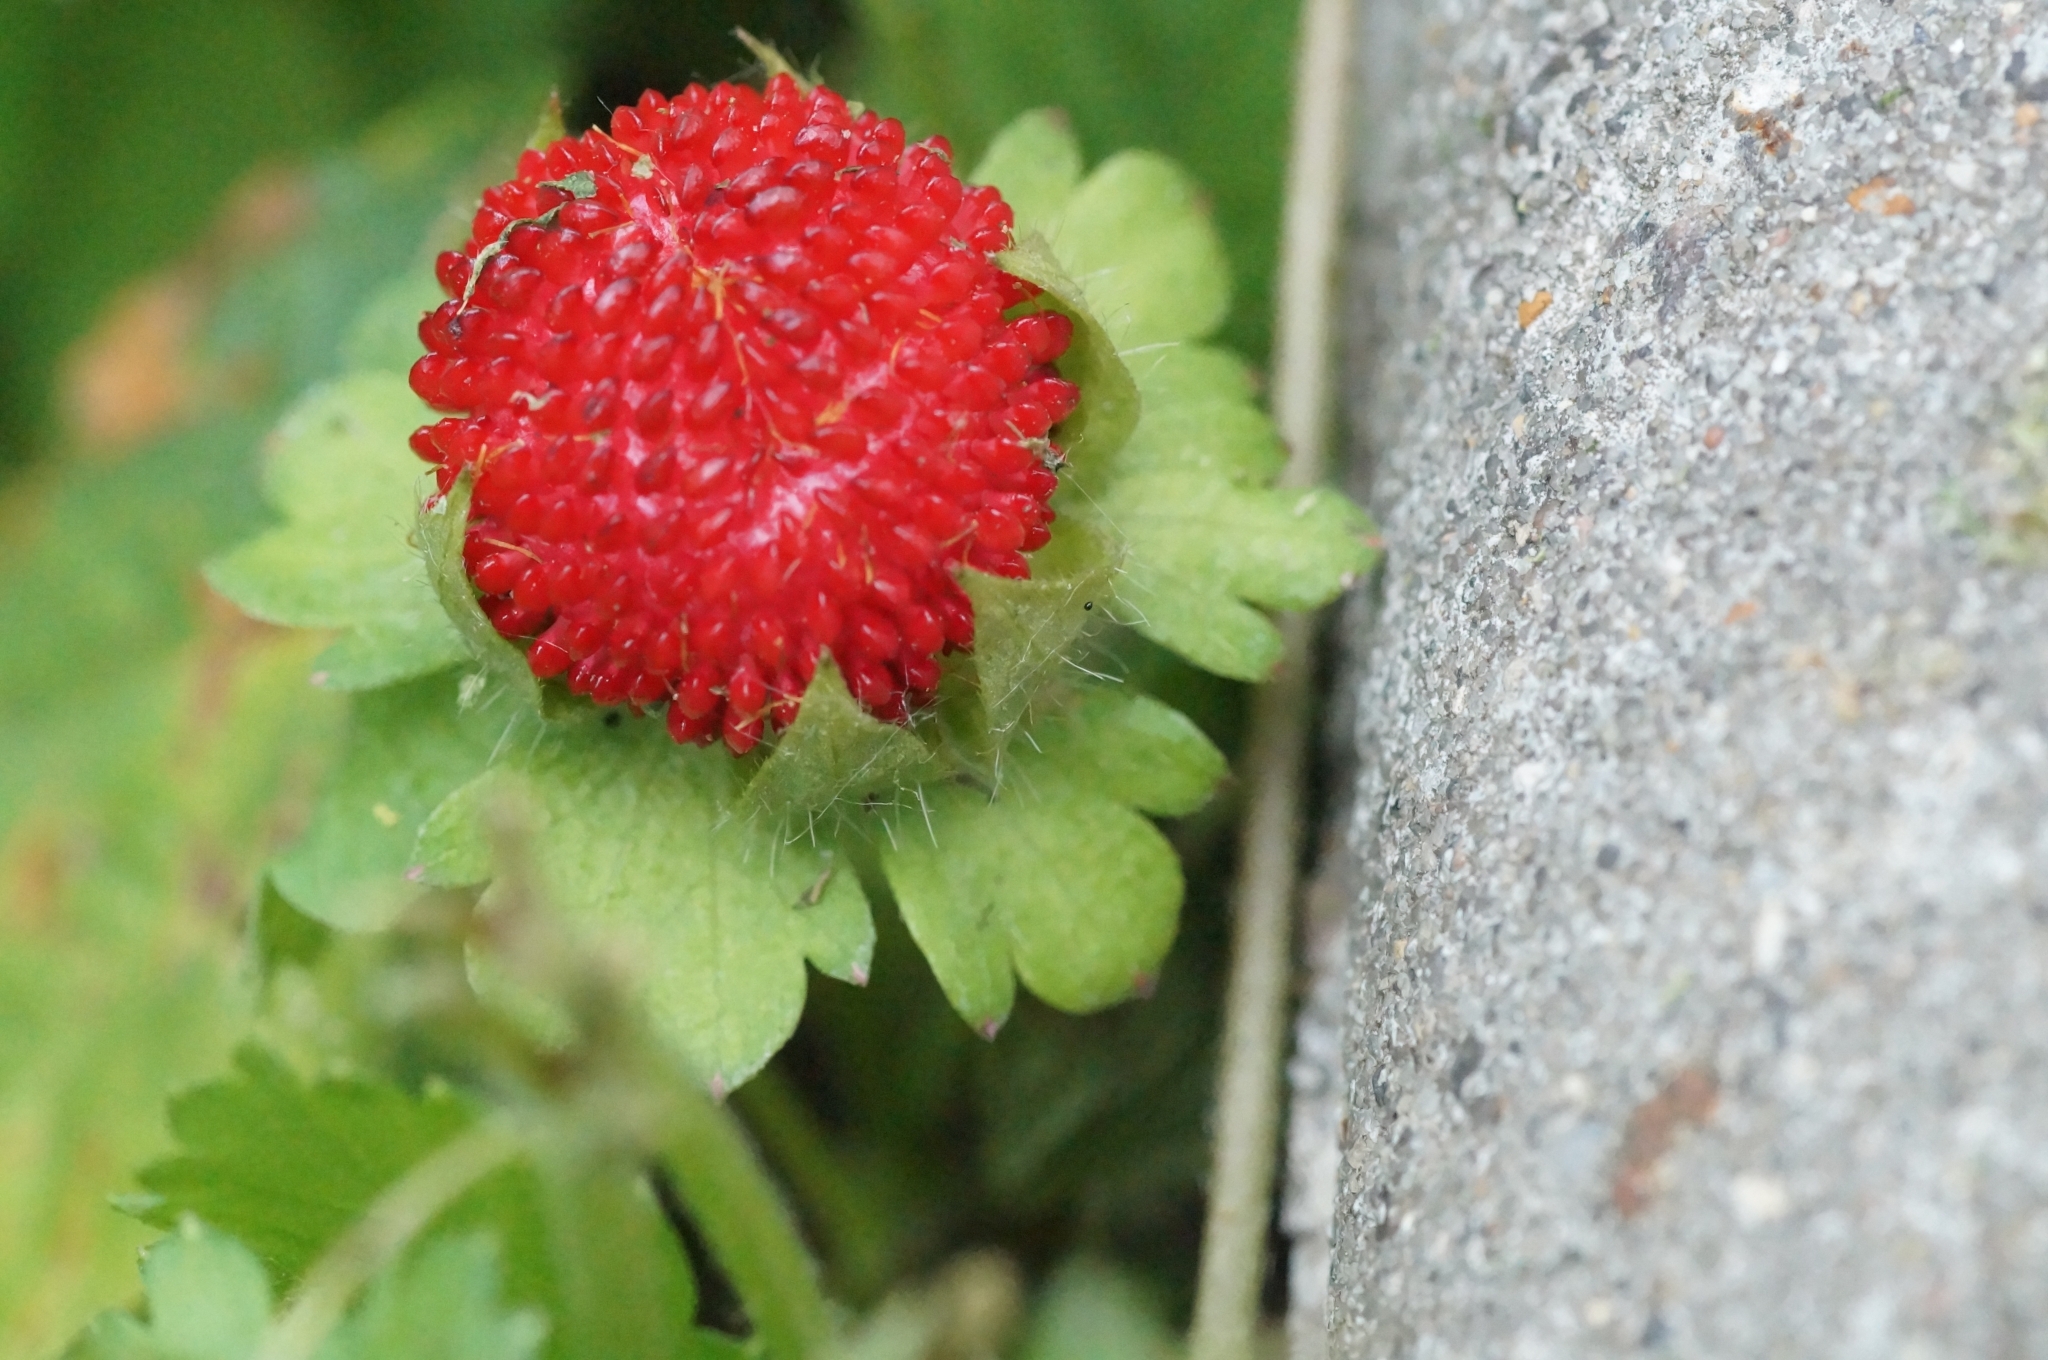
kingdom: Plantae
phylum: Tracheophyta
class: Magnoliopsida
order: Rosales
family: Rosaceae
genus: Potentilla
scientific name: Potentilla indica
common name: Yellow-flowered strawberry
